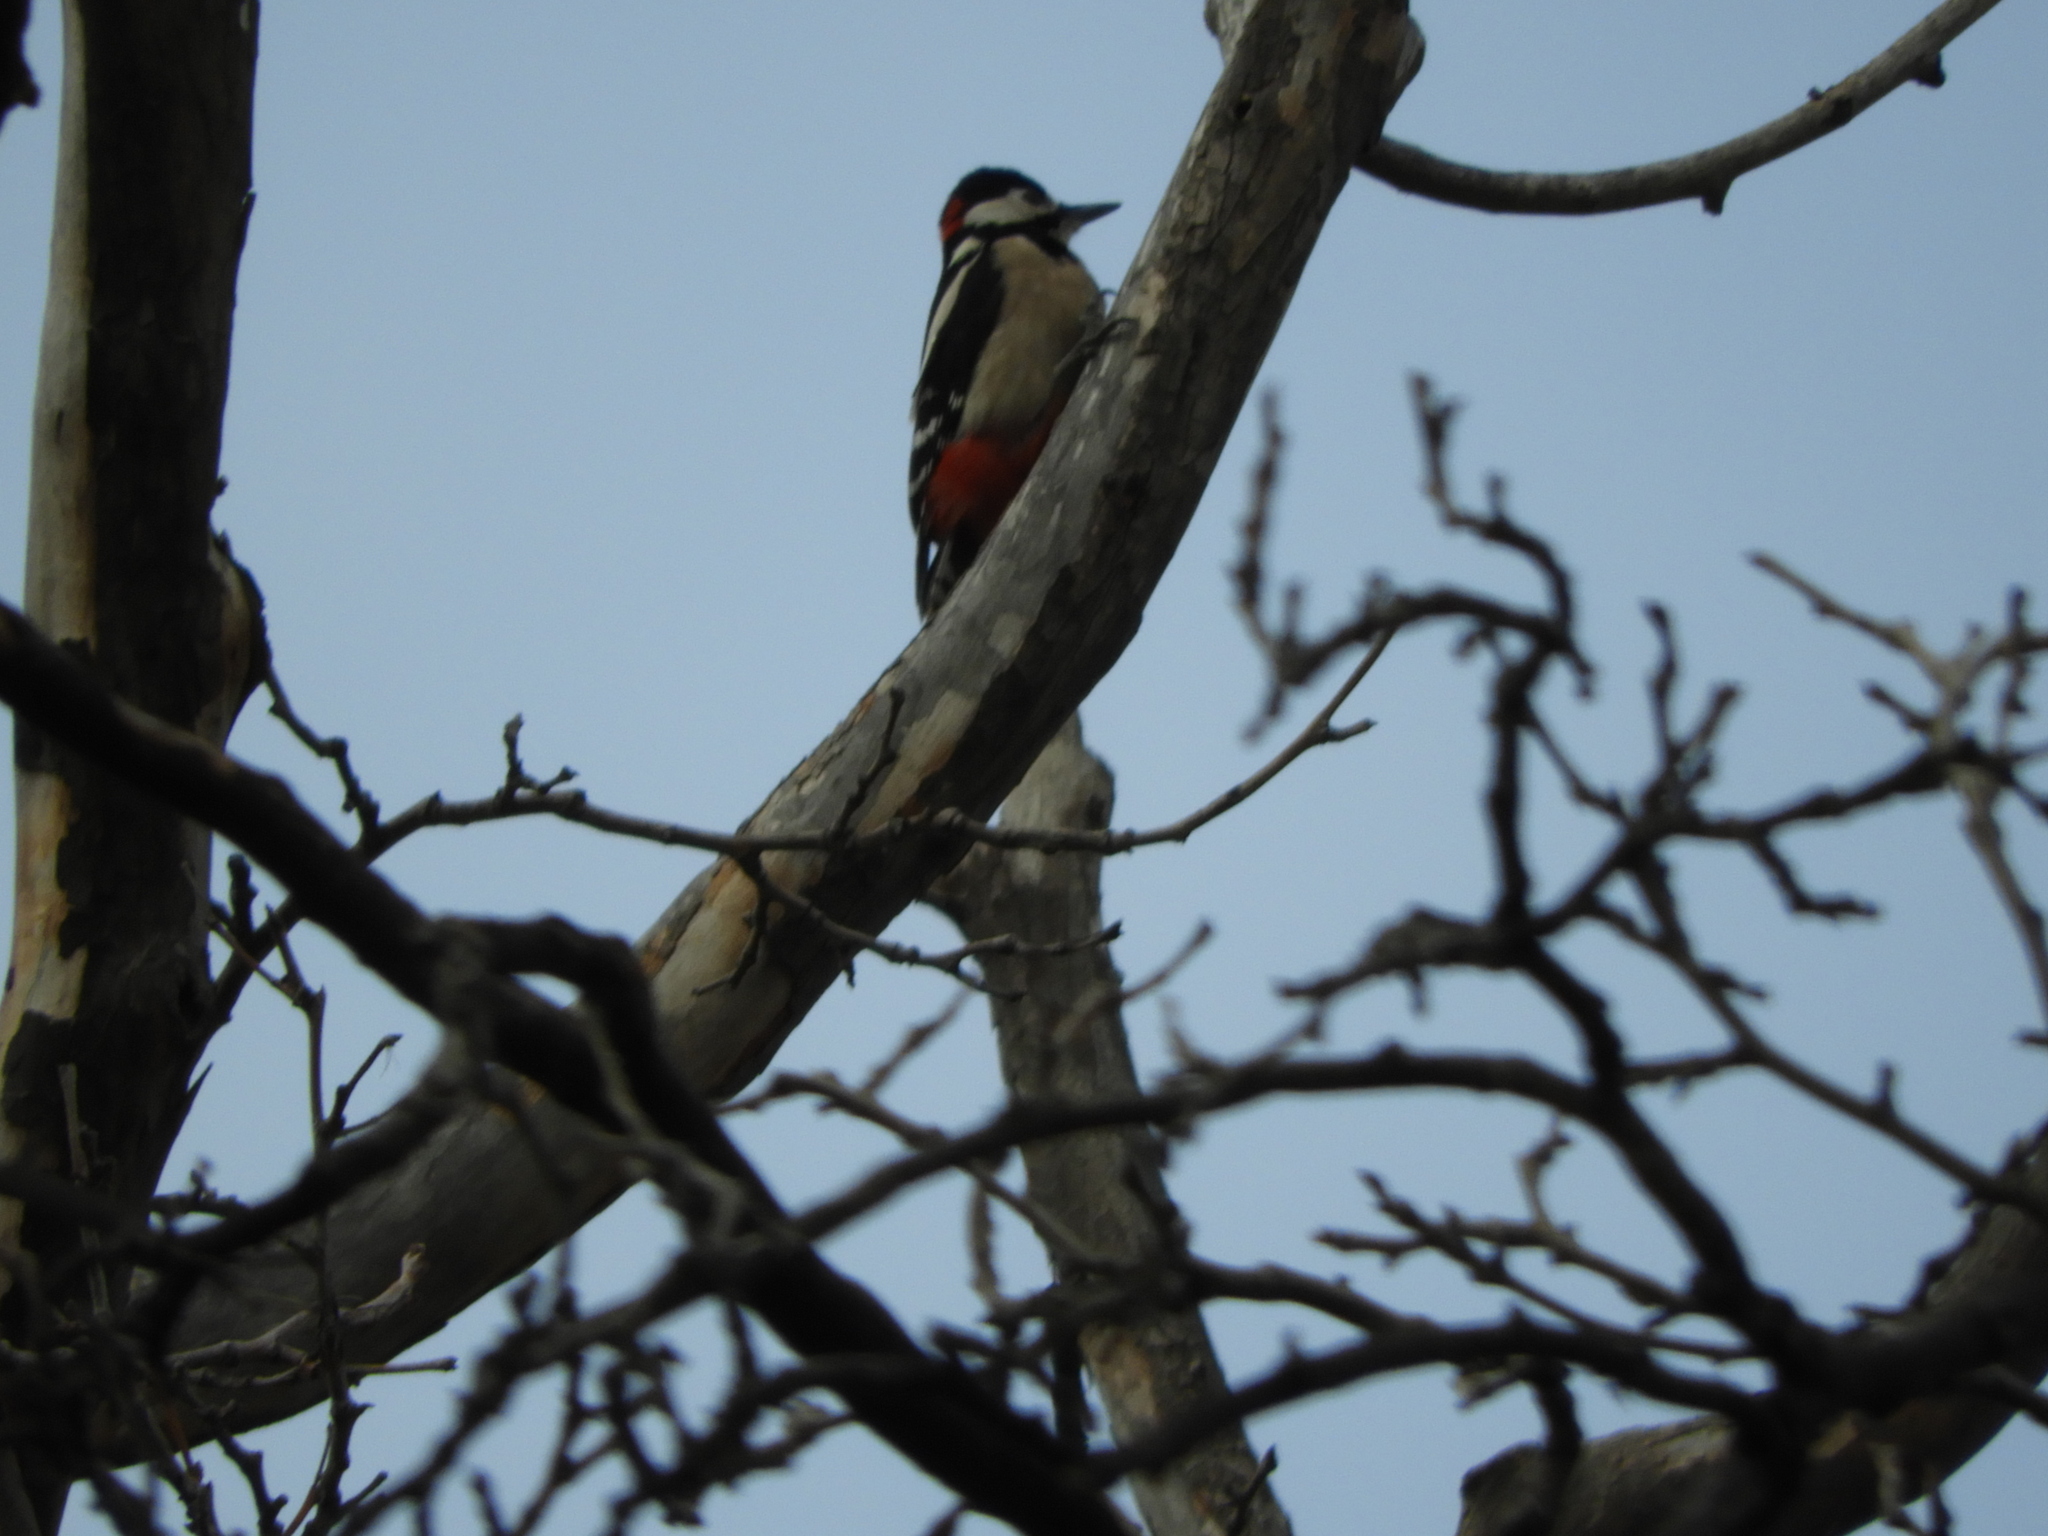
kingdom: Animalia
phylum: Chordata
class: Aves
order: Piciformes
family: Picidae
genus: Dendrocopos
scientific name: Dendrocopos major
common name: Great spotted woodpecker
